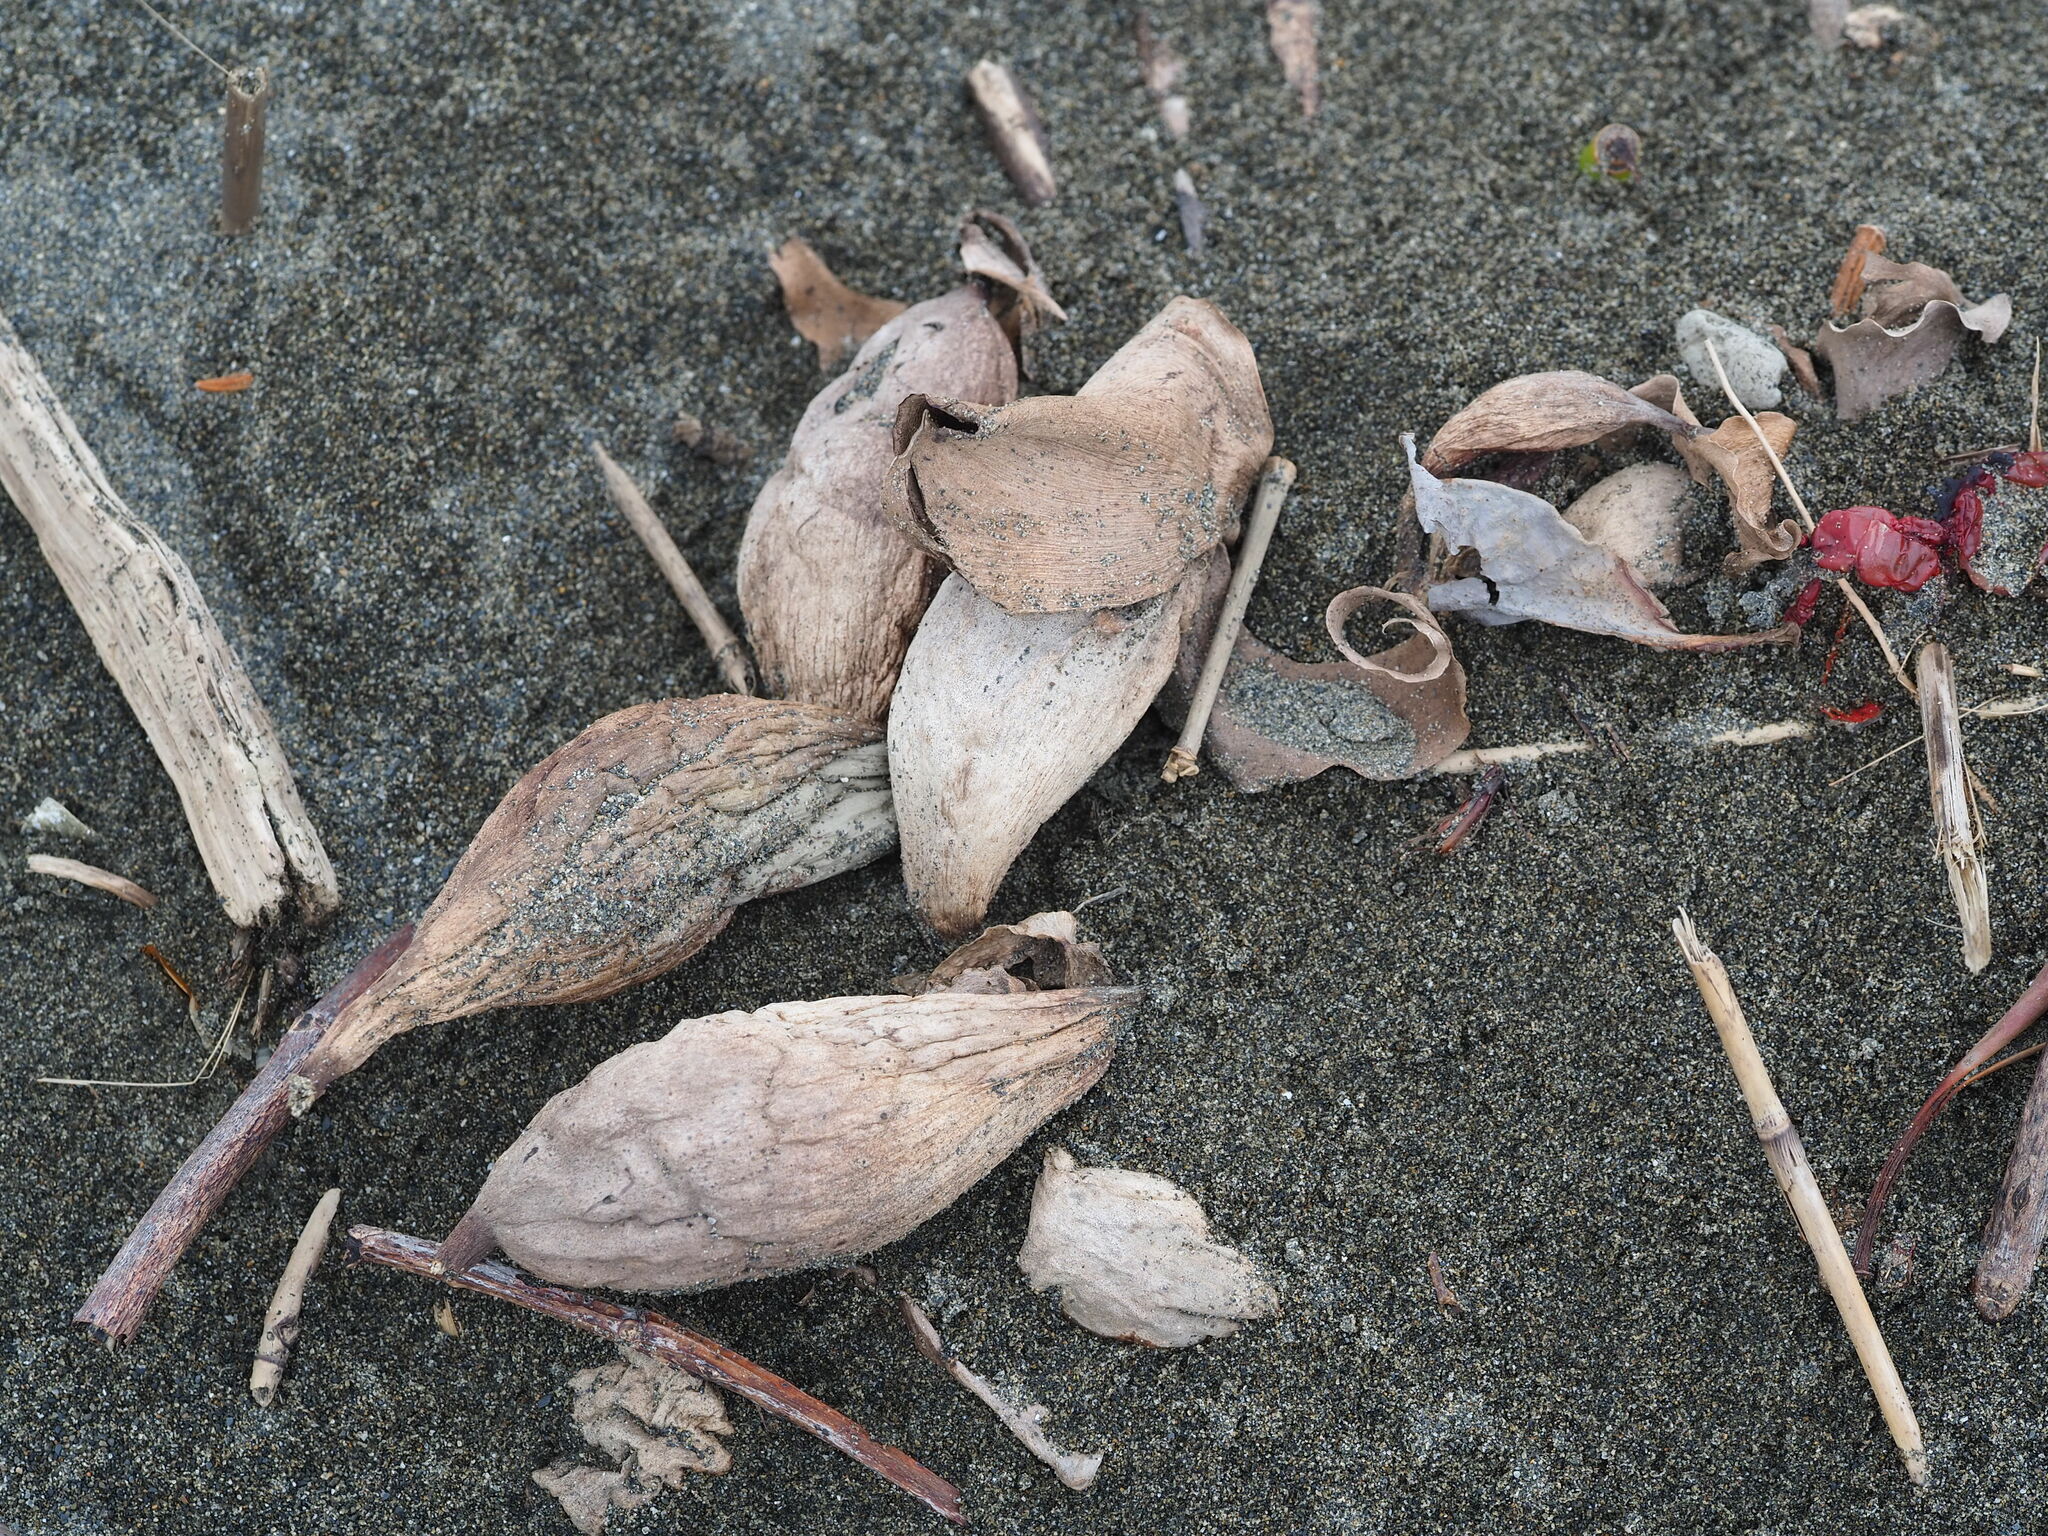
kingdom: Plantae
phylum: Tracheophyta
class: Liliopsida
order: Commelinales
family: Pontederiaceae
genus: Pontederia
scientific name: Pontederia crassipes
